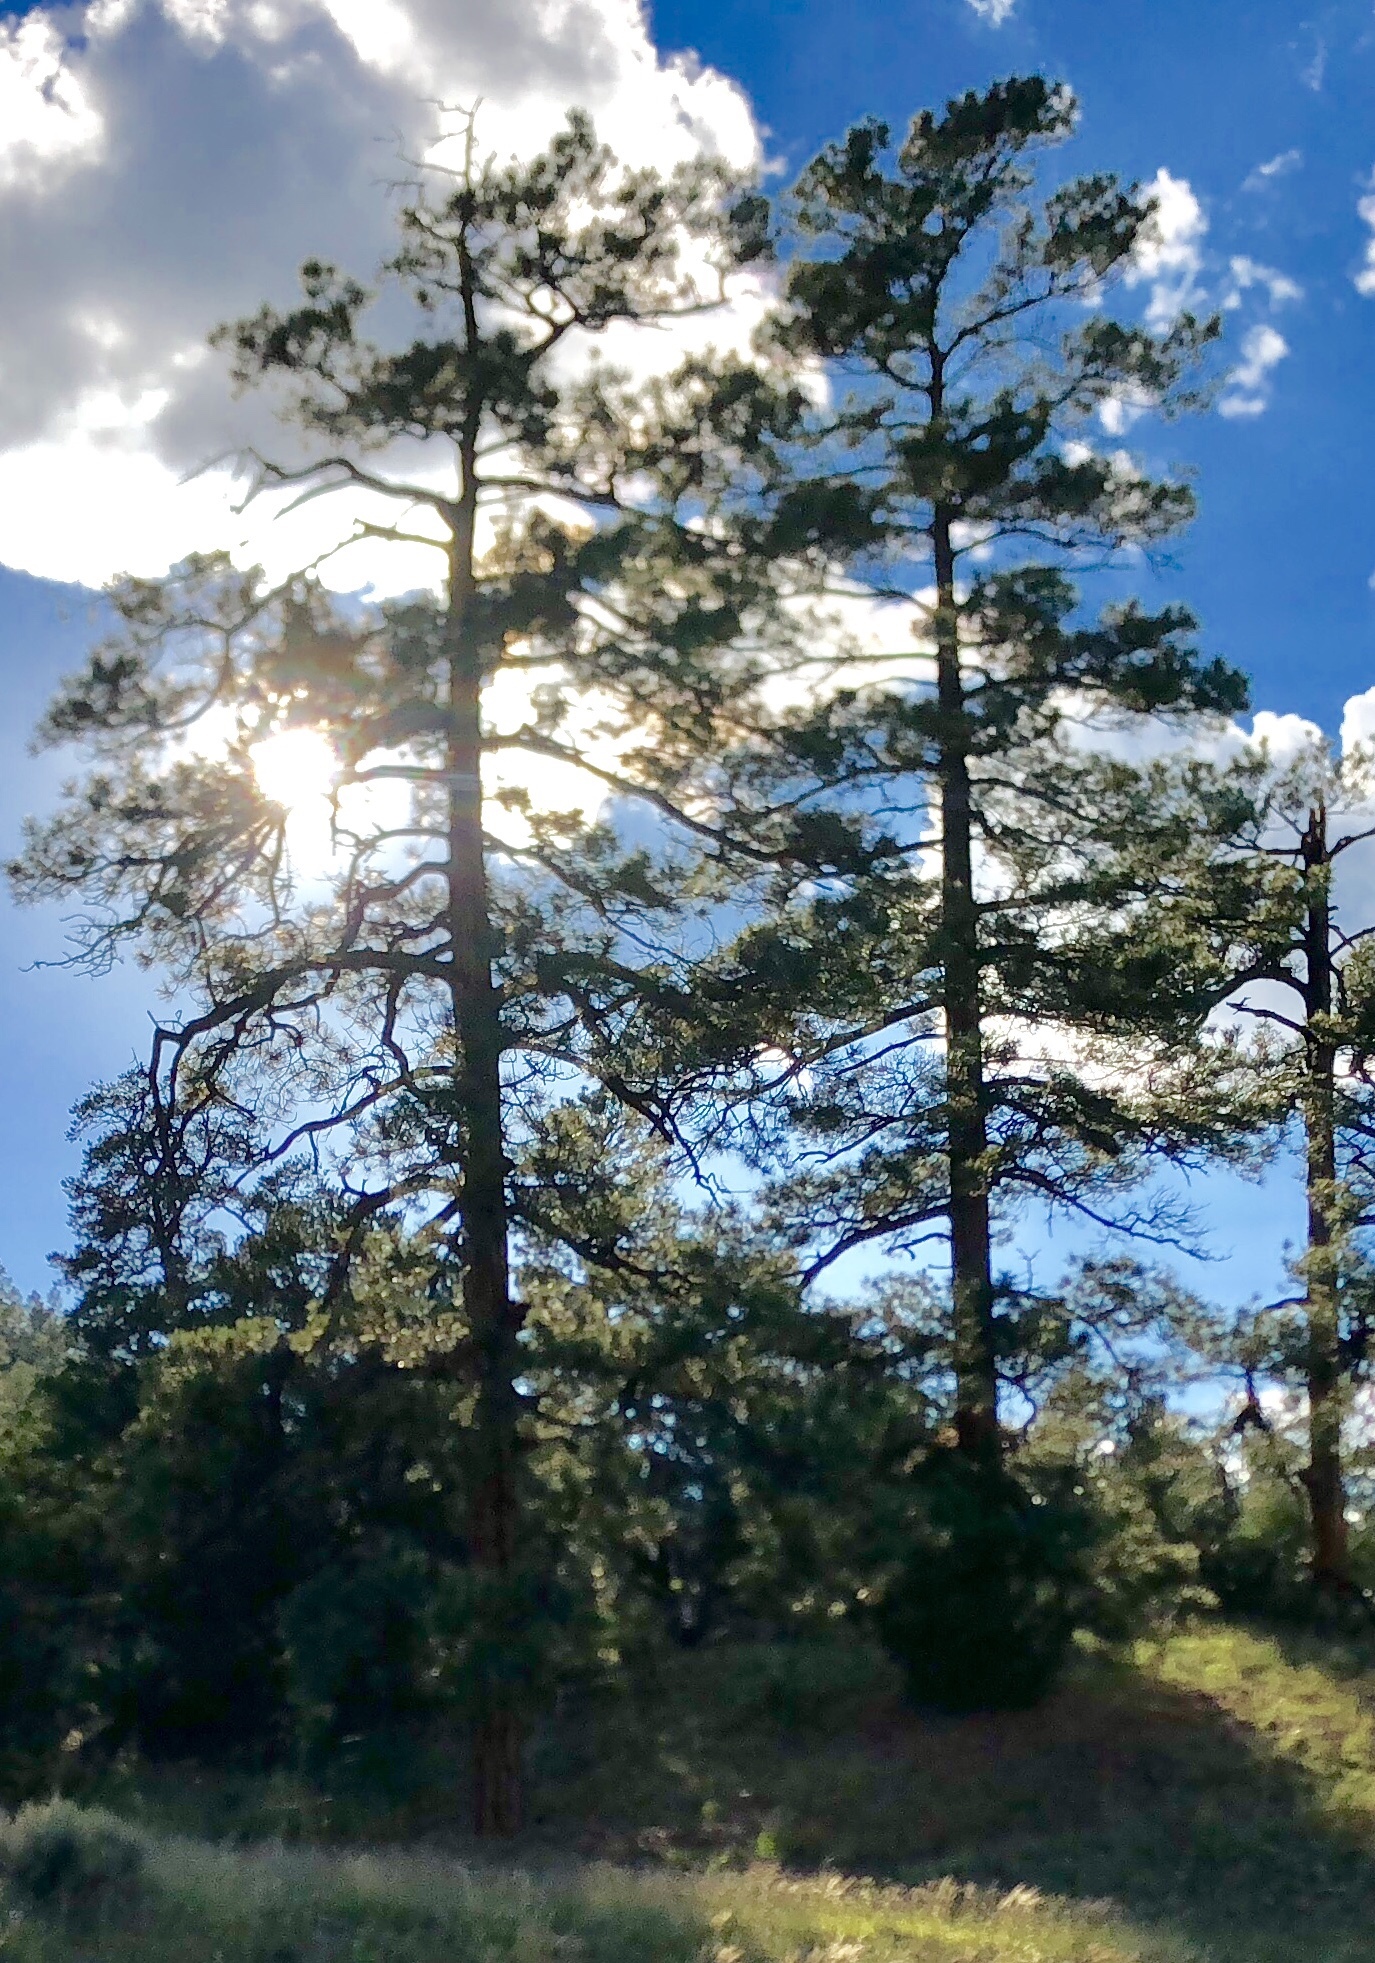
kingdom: Plantae
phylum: Tracheophyta
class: Pinopsida
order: Pinales
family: Pinaceae
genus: Pinus
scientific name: Pinus ponderosa
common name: Western yellow-pine
